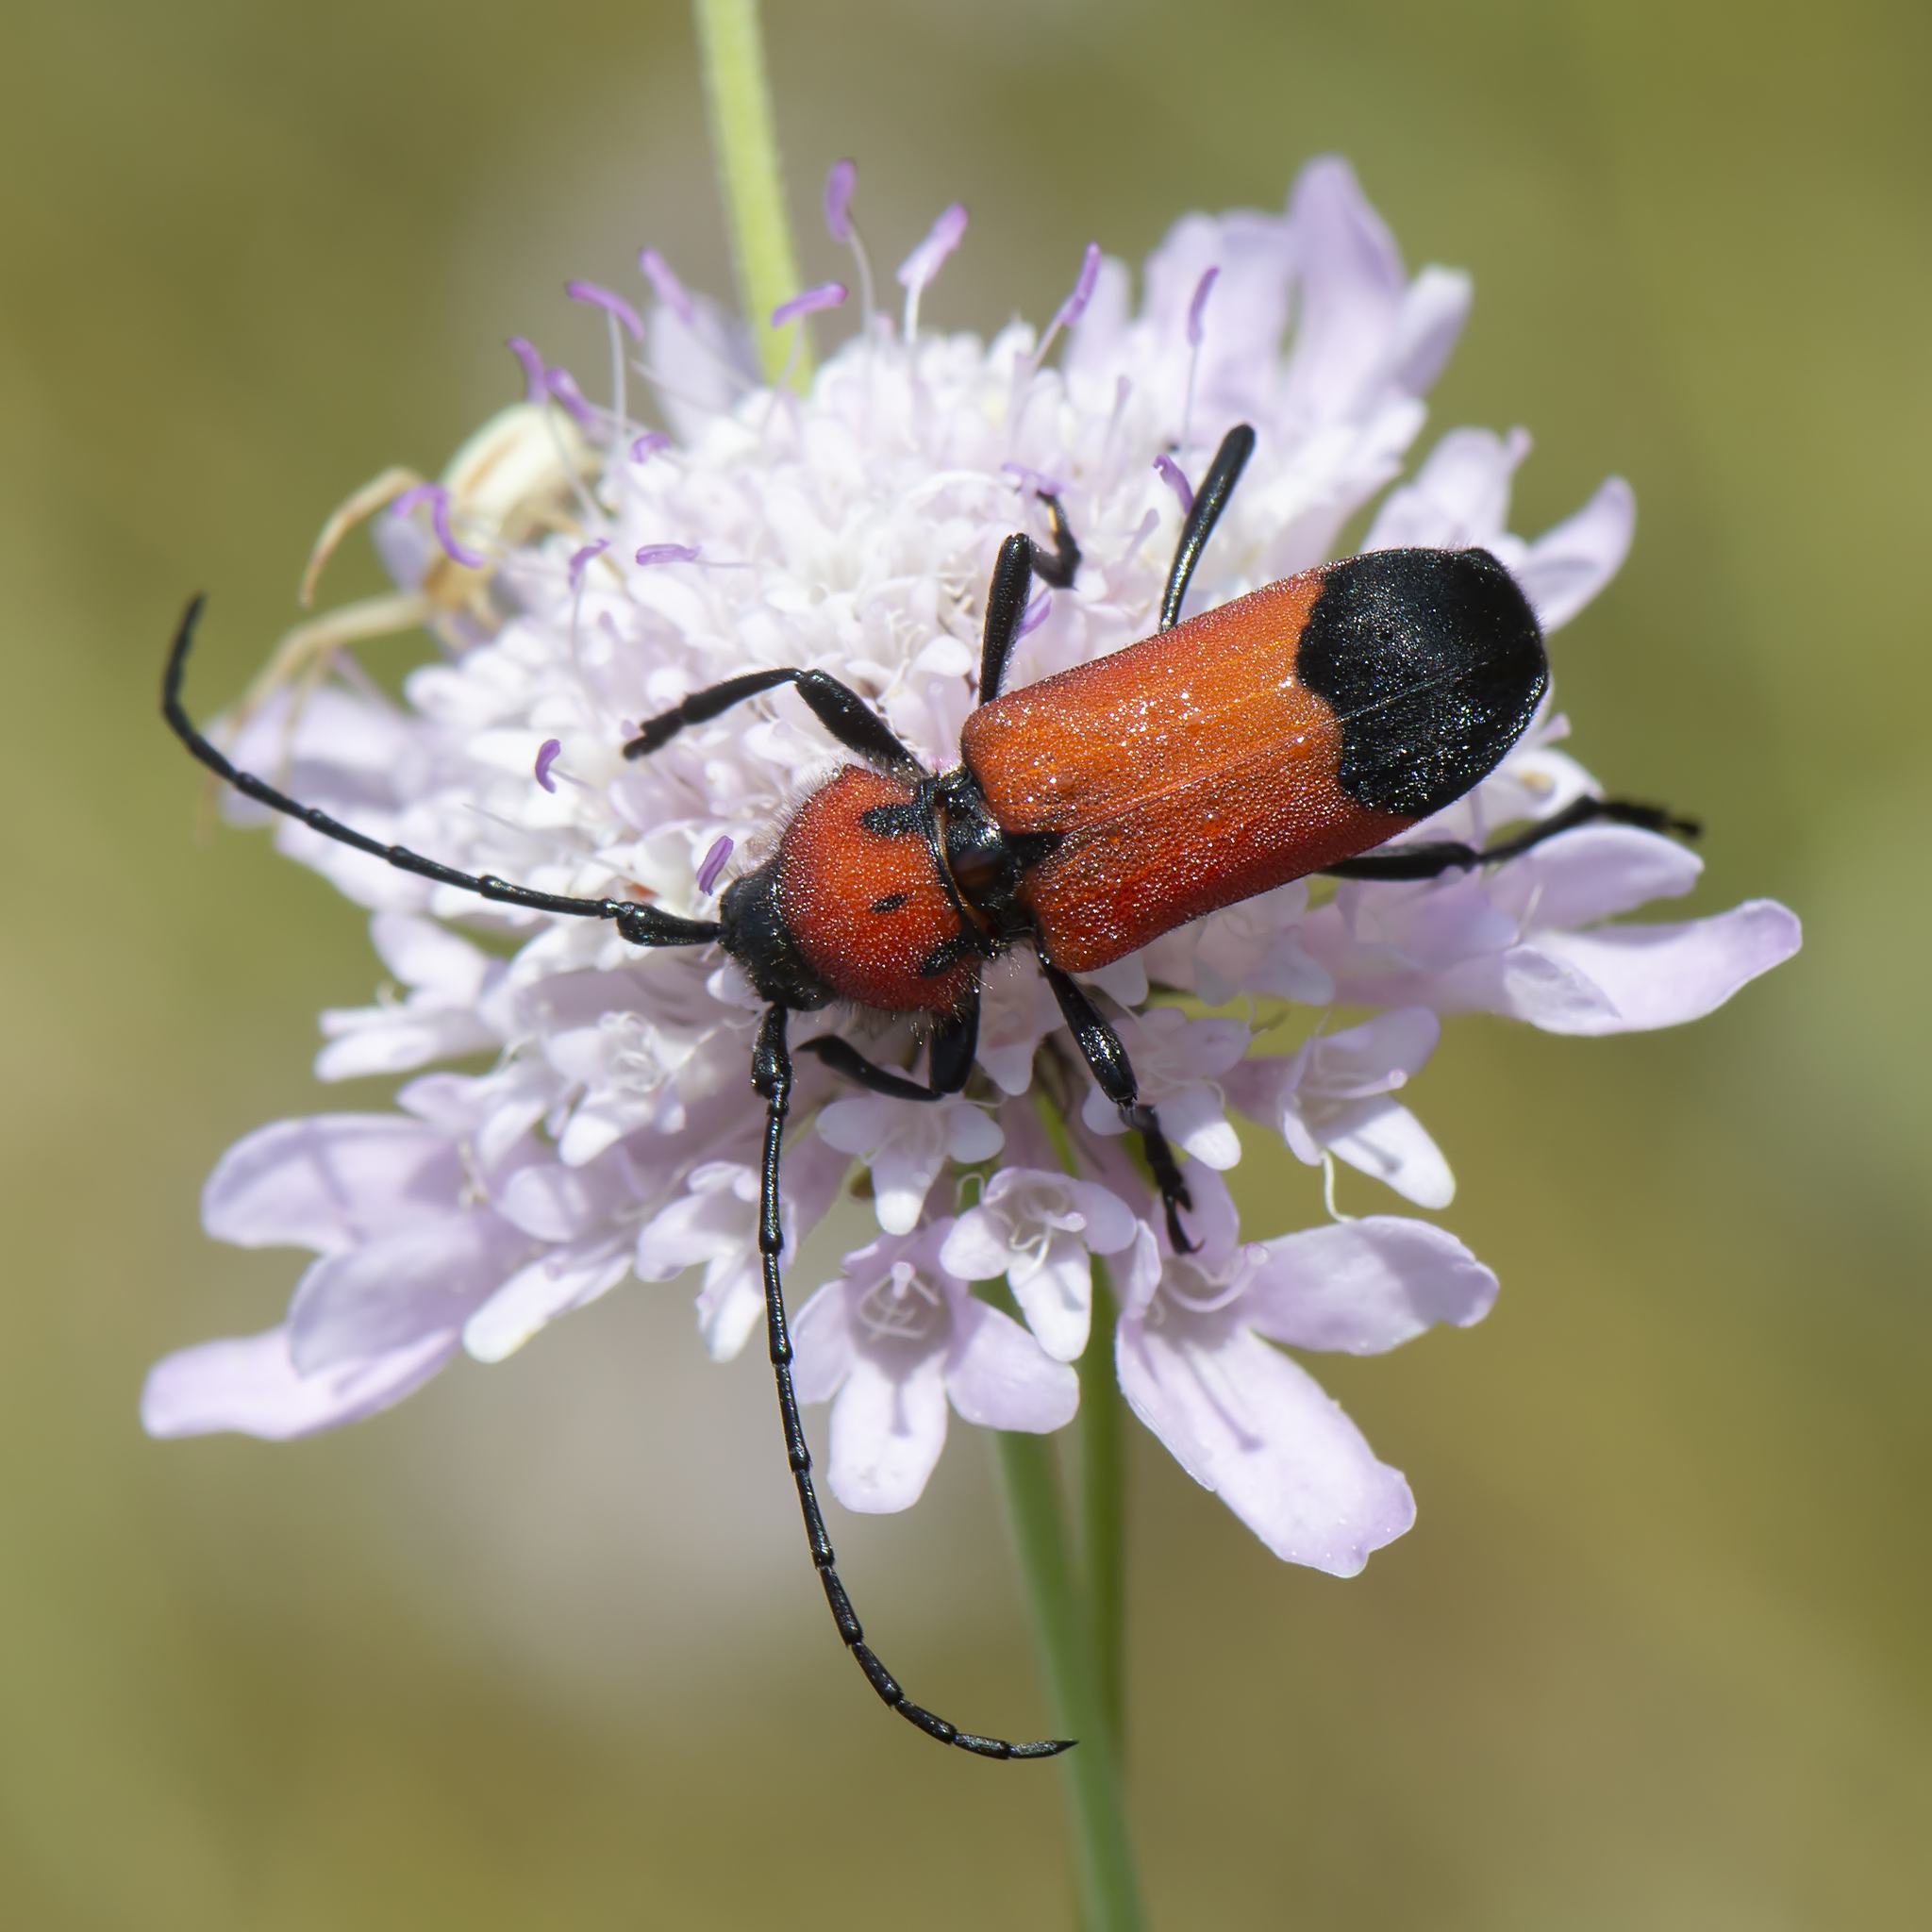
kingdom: Animalia
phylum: Arthropoda
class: Insecta
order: Coleoptera
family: Cerambycidae
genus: Purpuricenus
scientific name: Purpuricenus desfontainii
